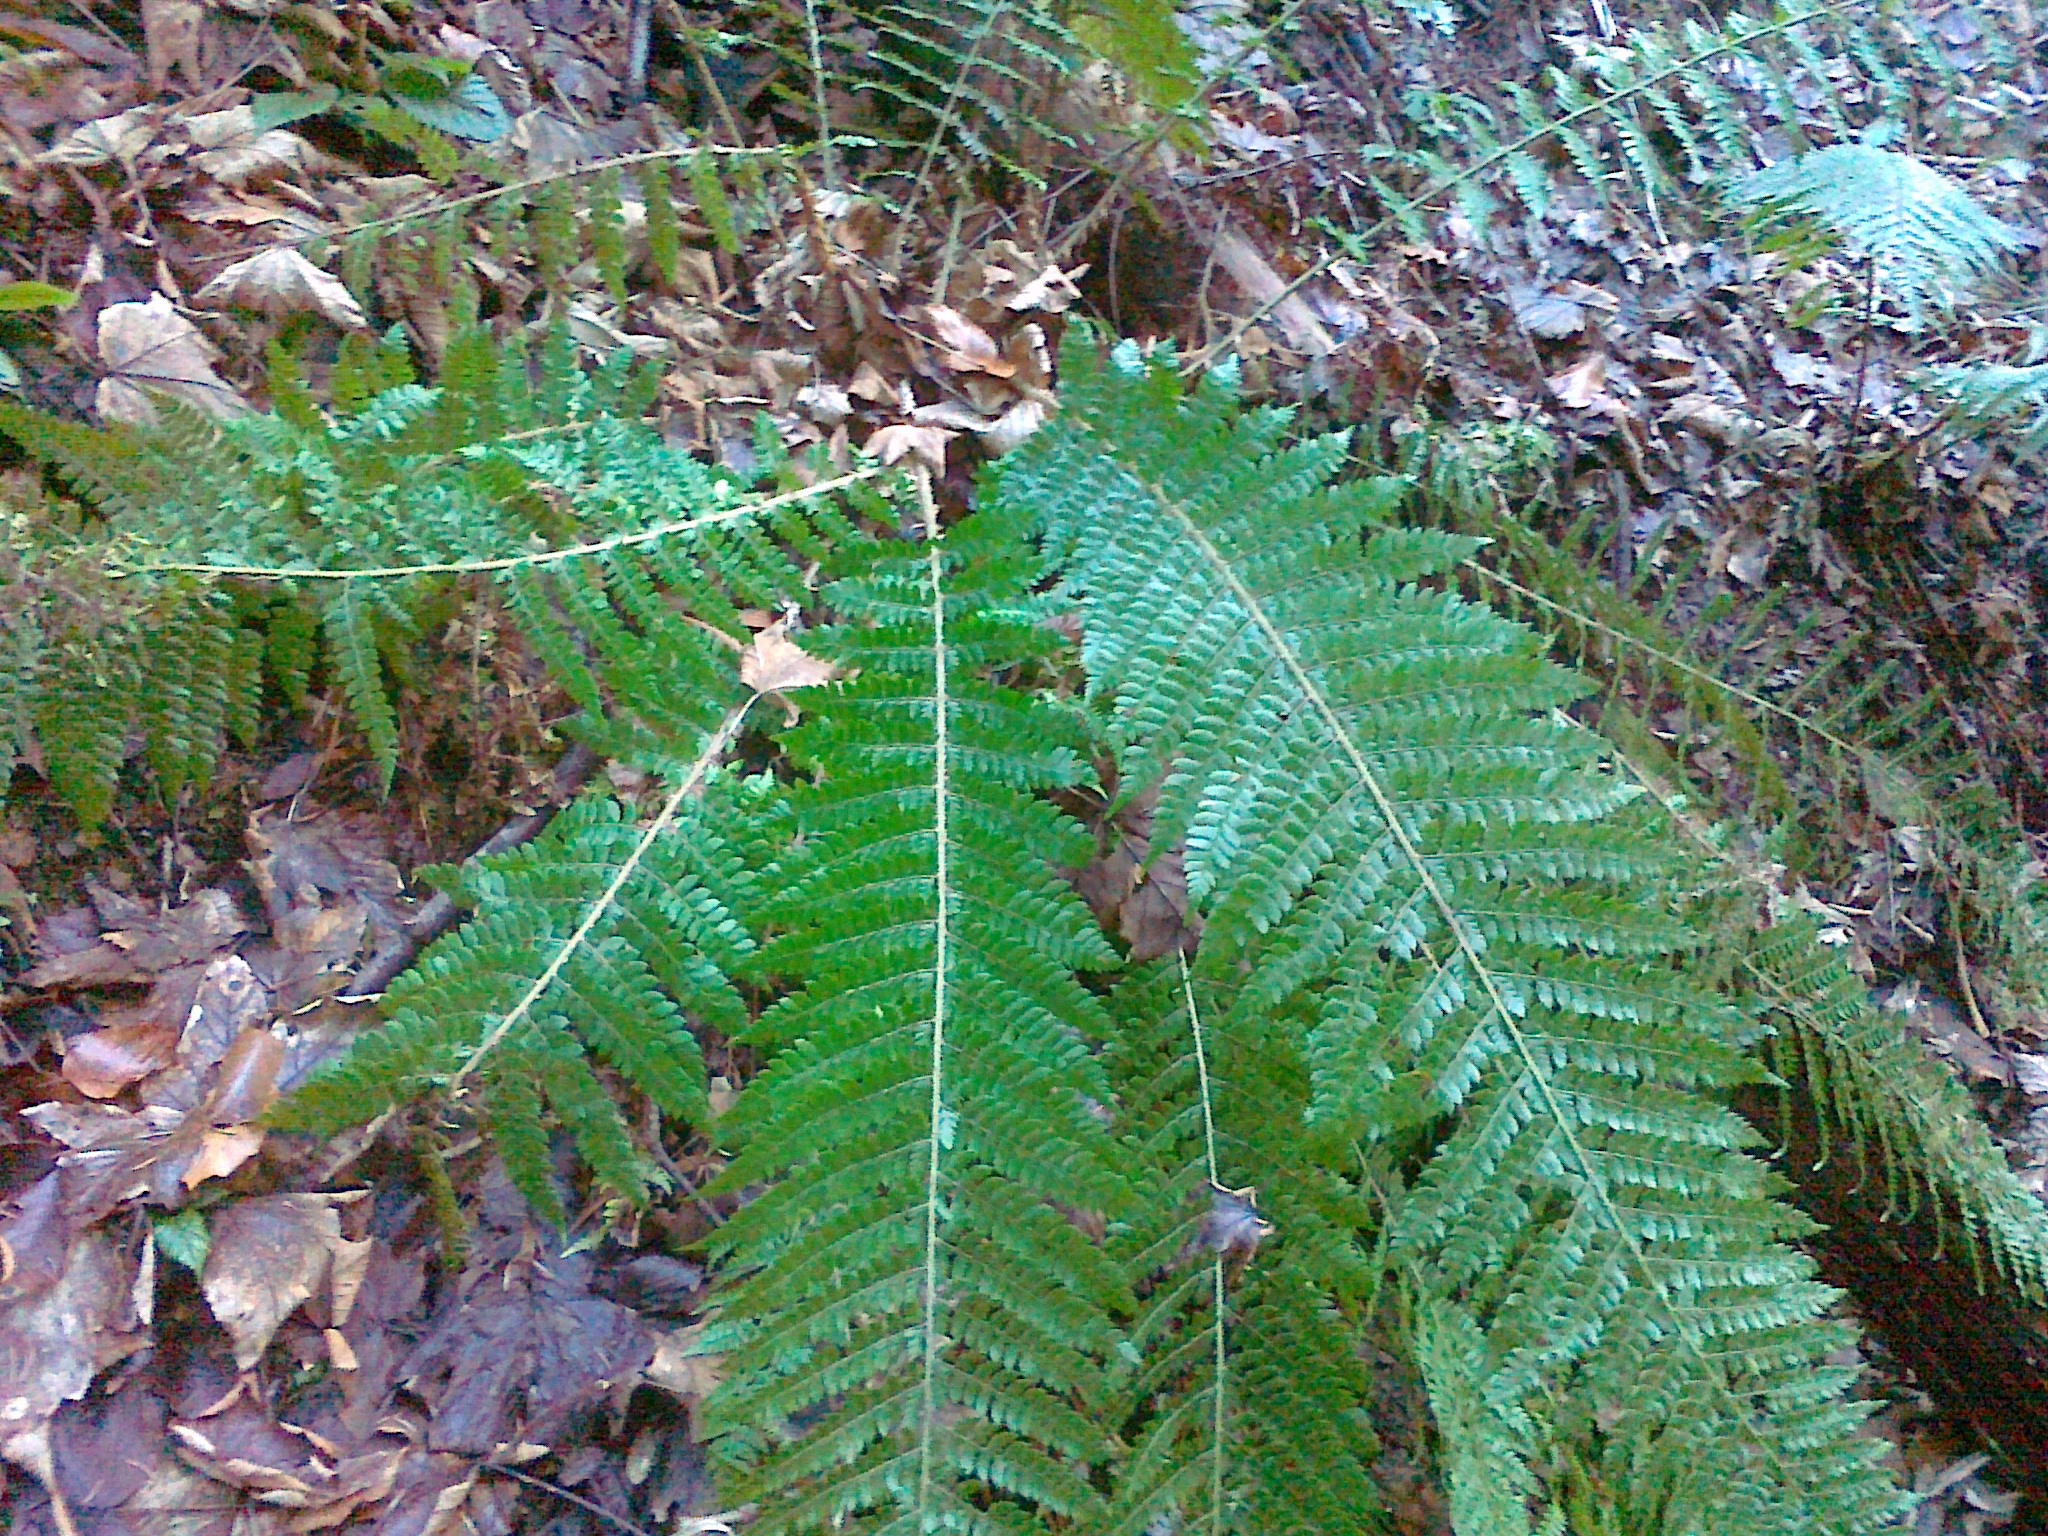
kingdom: Plantae
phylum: Tracheophyta
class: Polypodiopsida
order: Polypodiales
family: Dryopteridaceae
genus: Polystichum
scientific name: Polystichum wirtgenii
